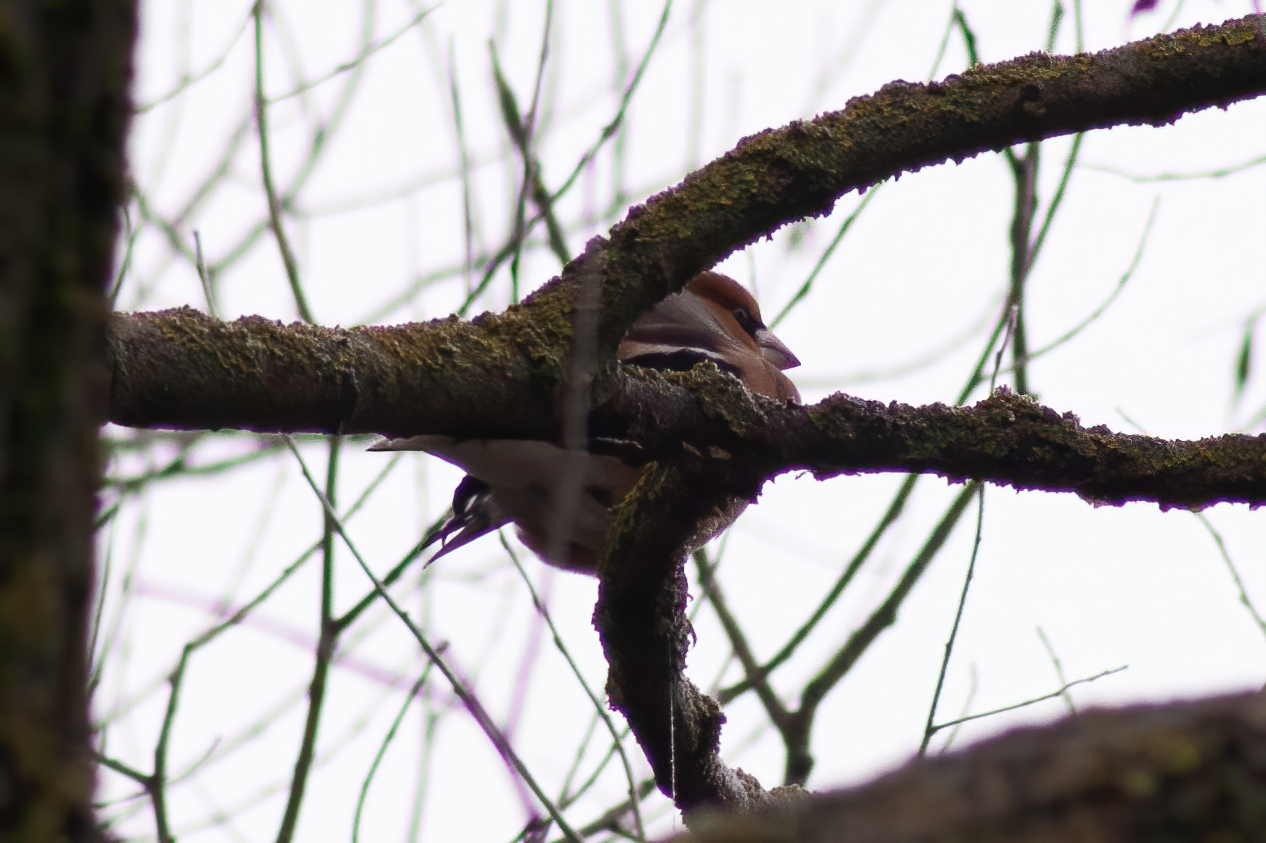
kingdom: Animalia
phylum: Chordata
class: Aves
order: Passeriformes
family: Fringillidae
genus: Coccothraustes
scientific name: Coccothraustes coccothraustes
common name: Hawfinch
